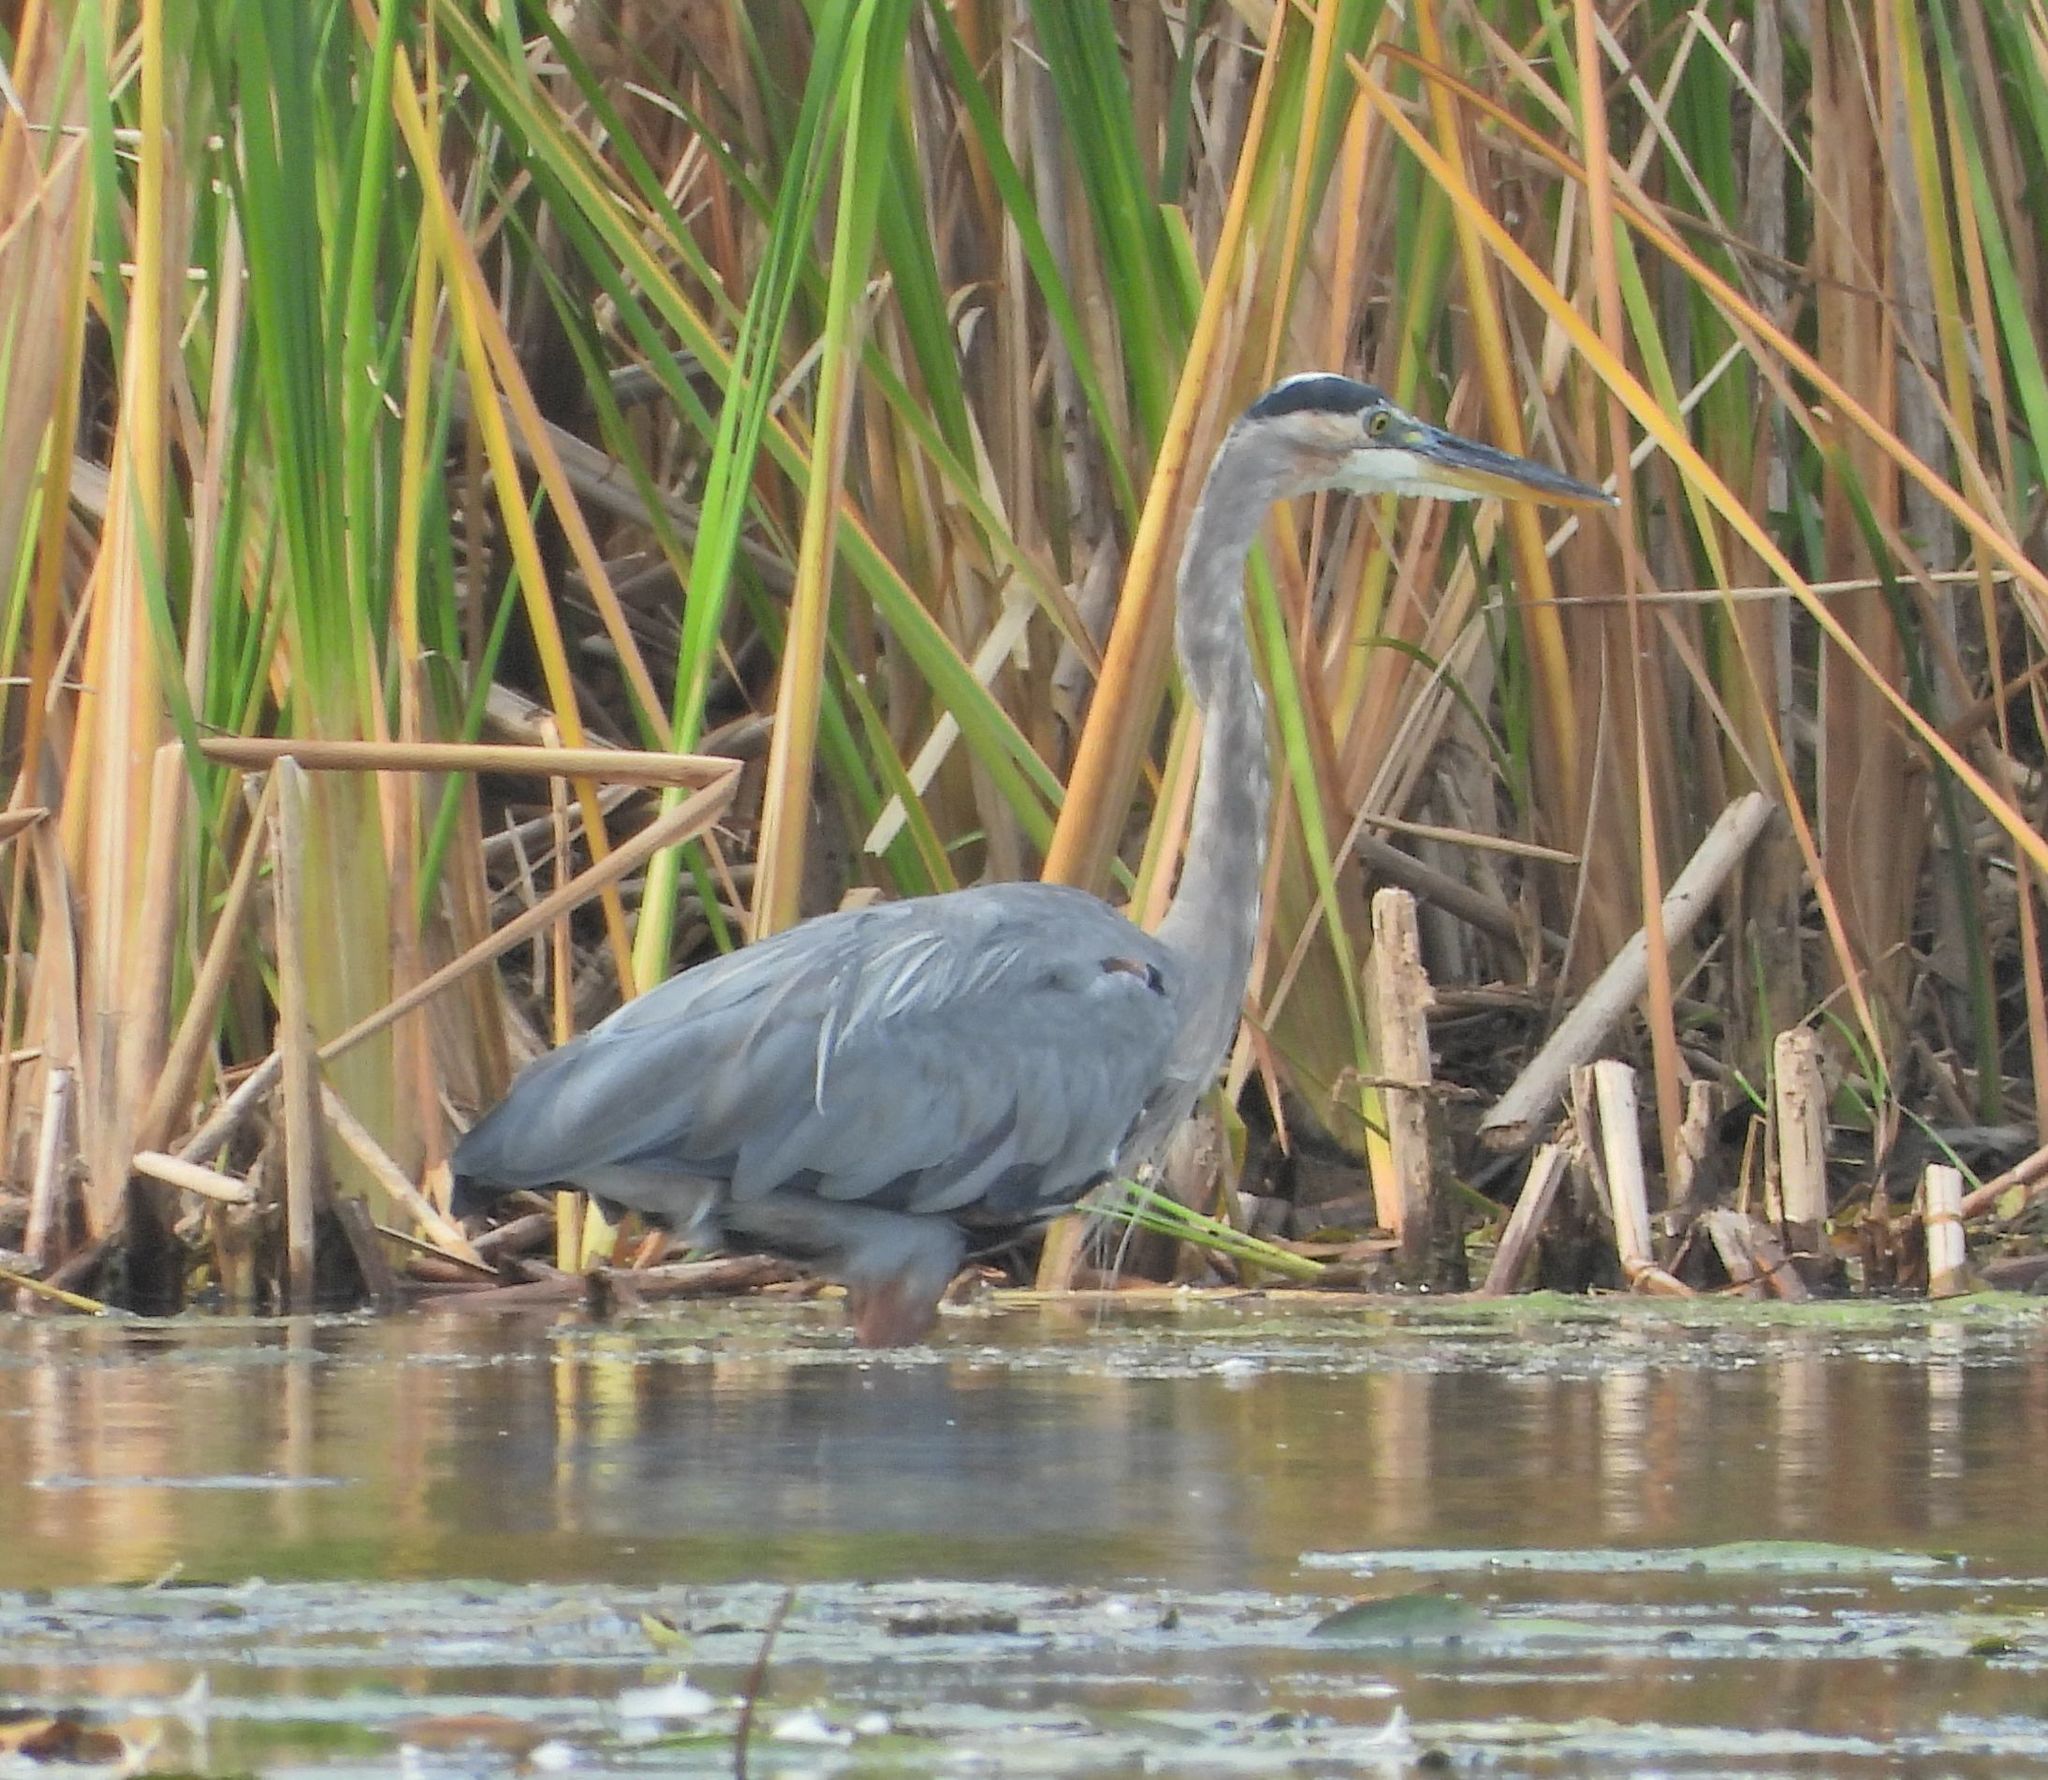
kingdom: Animalia
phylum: Chordata
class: Aves
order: Pelecaniformes
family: Ardeidae
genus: Ardea
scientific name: Ardea herodias
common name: Great blue heron
